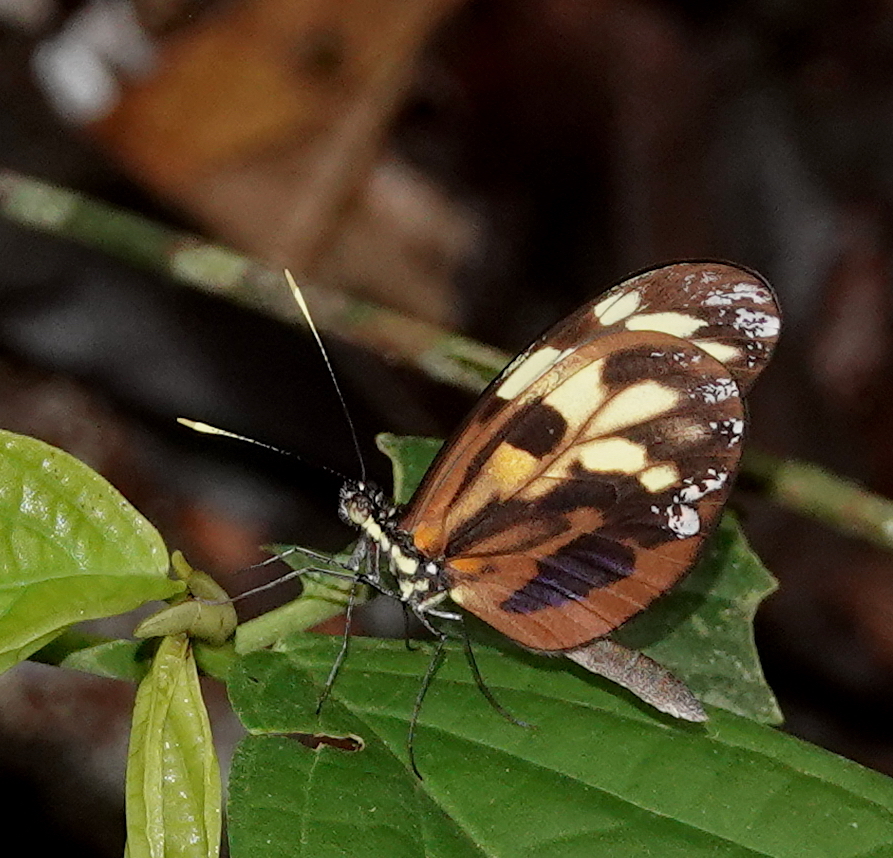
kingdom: Animalia
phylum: Arthropoda
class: Insecta
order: Lepidoptera
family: Pieridae
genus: Dismorphia
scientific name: Dismorphia amphione
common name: Tiger mimic-white
